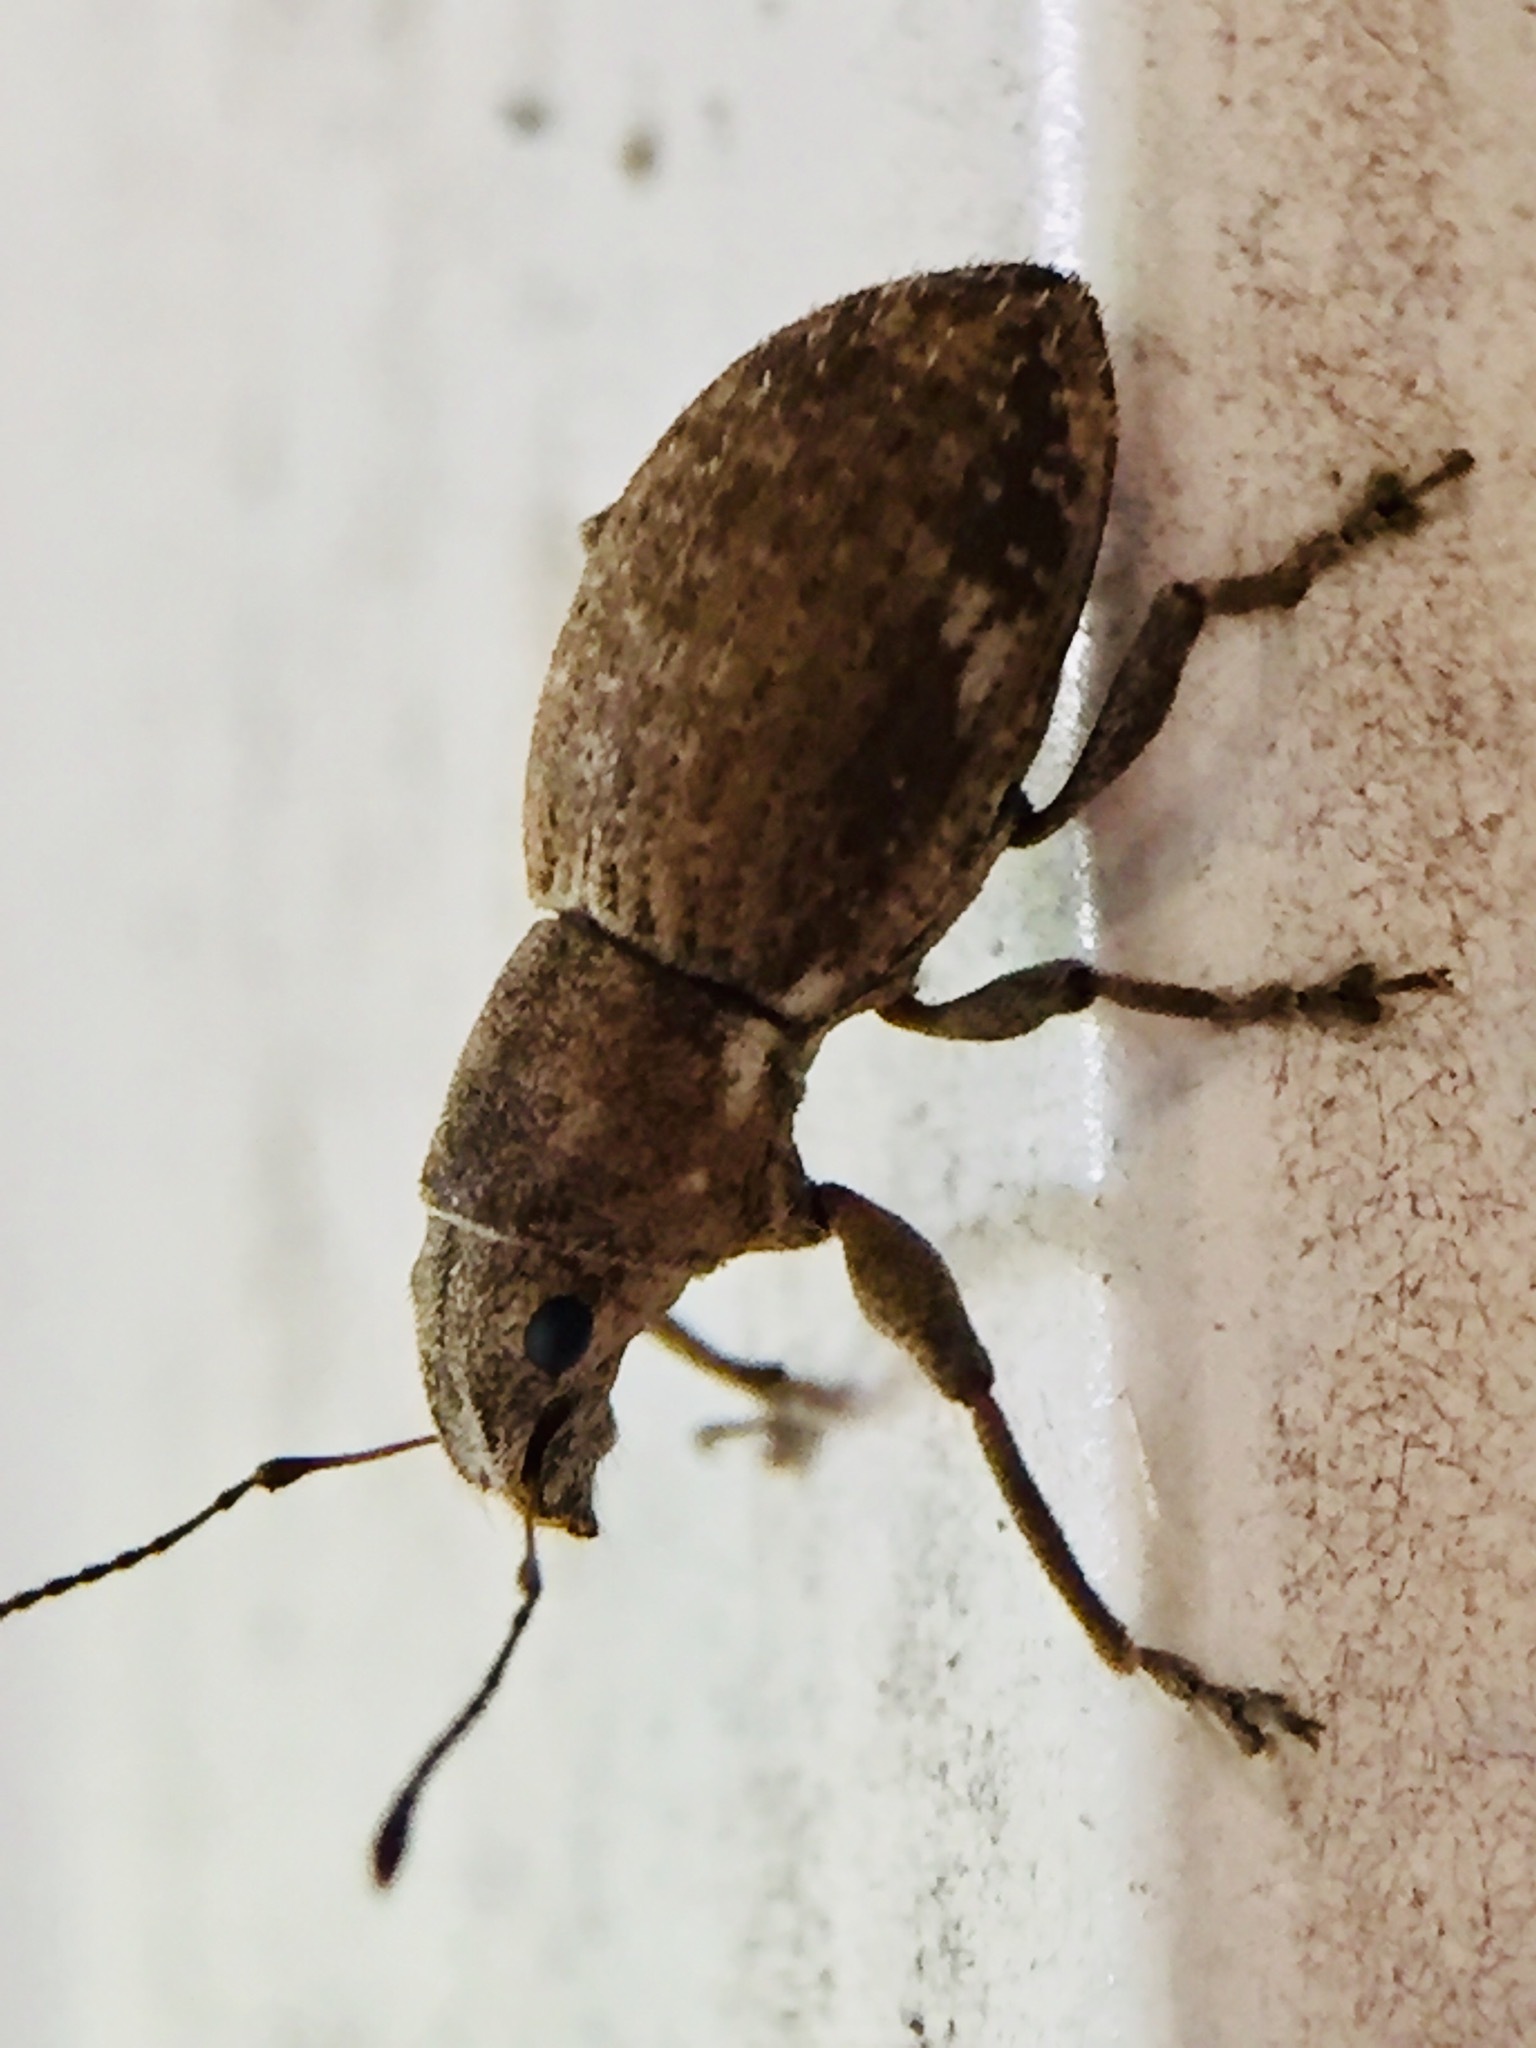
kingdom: Animalia
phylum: Arthropoda
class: Insecta
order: Coleoptera
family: Curculionidae
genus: Naupactus
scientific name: Naupactus cervinus
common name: Fuller rose beetle
